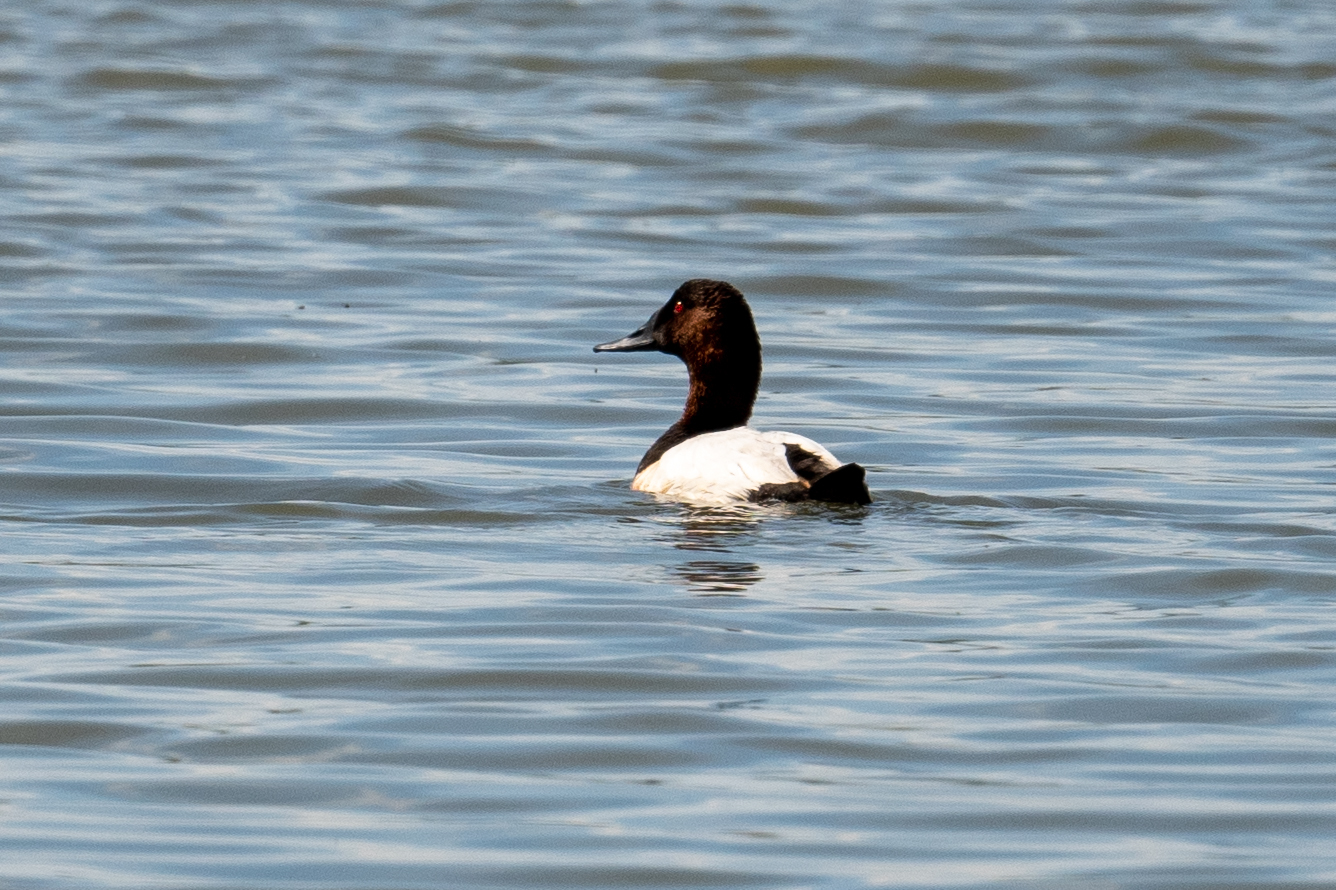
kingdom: Animalia
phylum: Chordata
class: Aves
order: Anseriformes
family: Anatidae
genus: Aythya
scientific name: Aythya valisineria
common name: Canvasback
